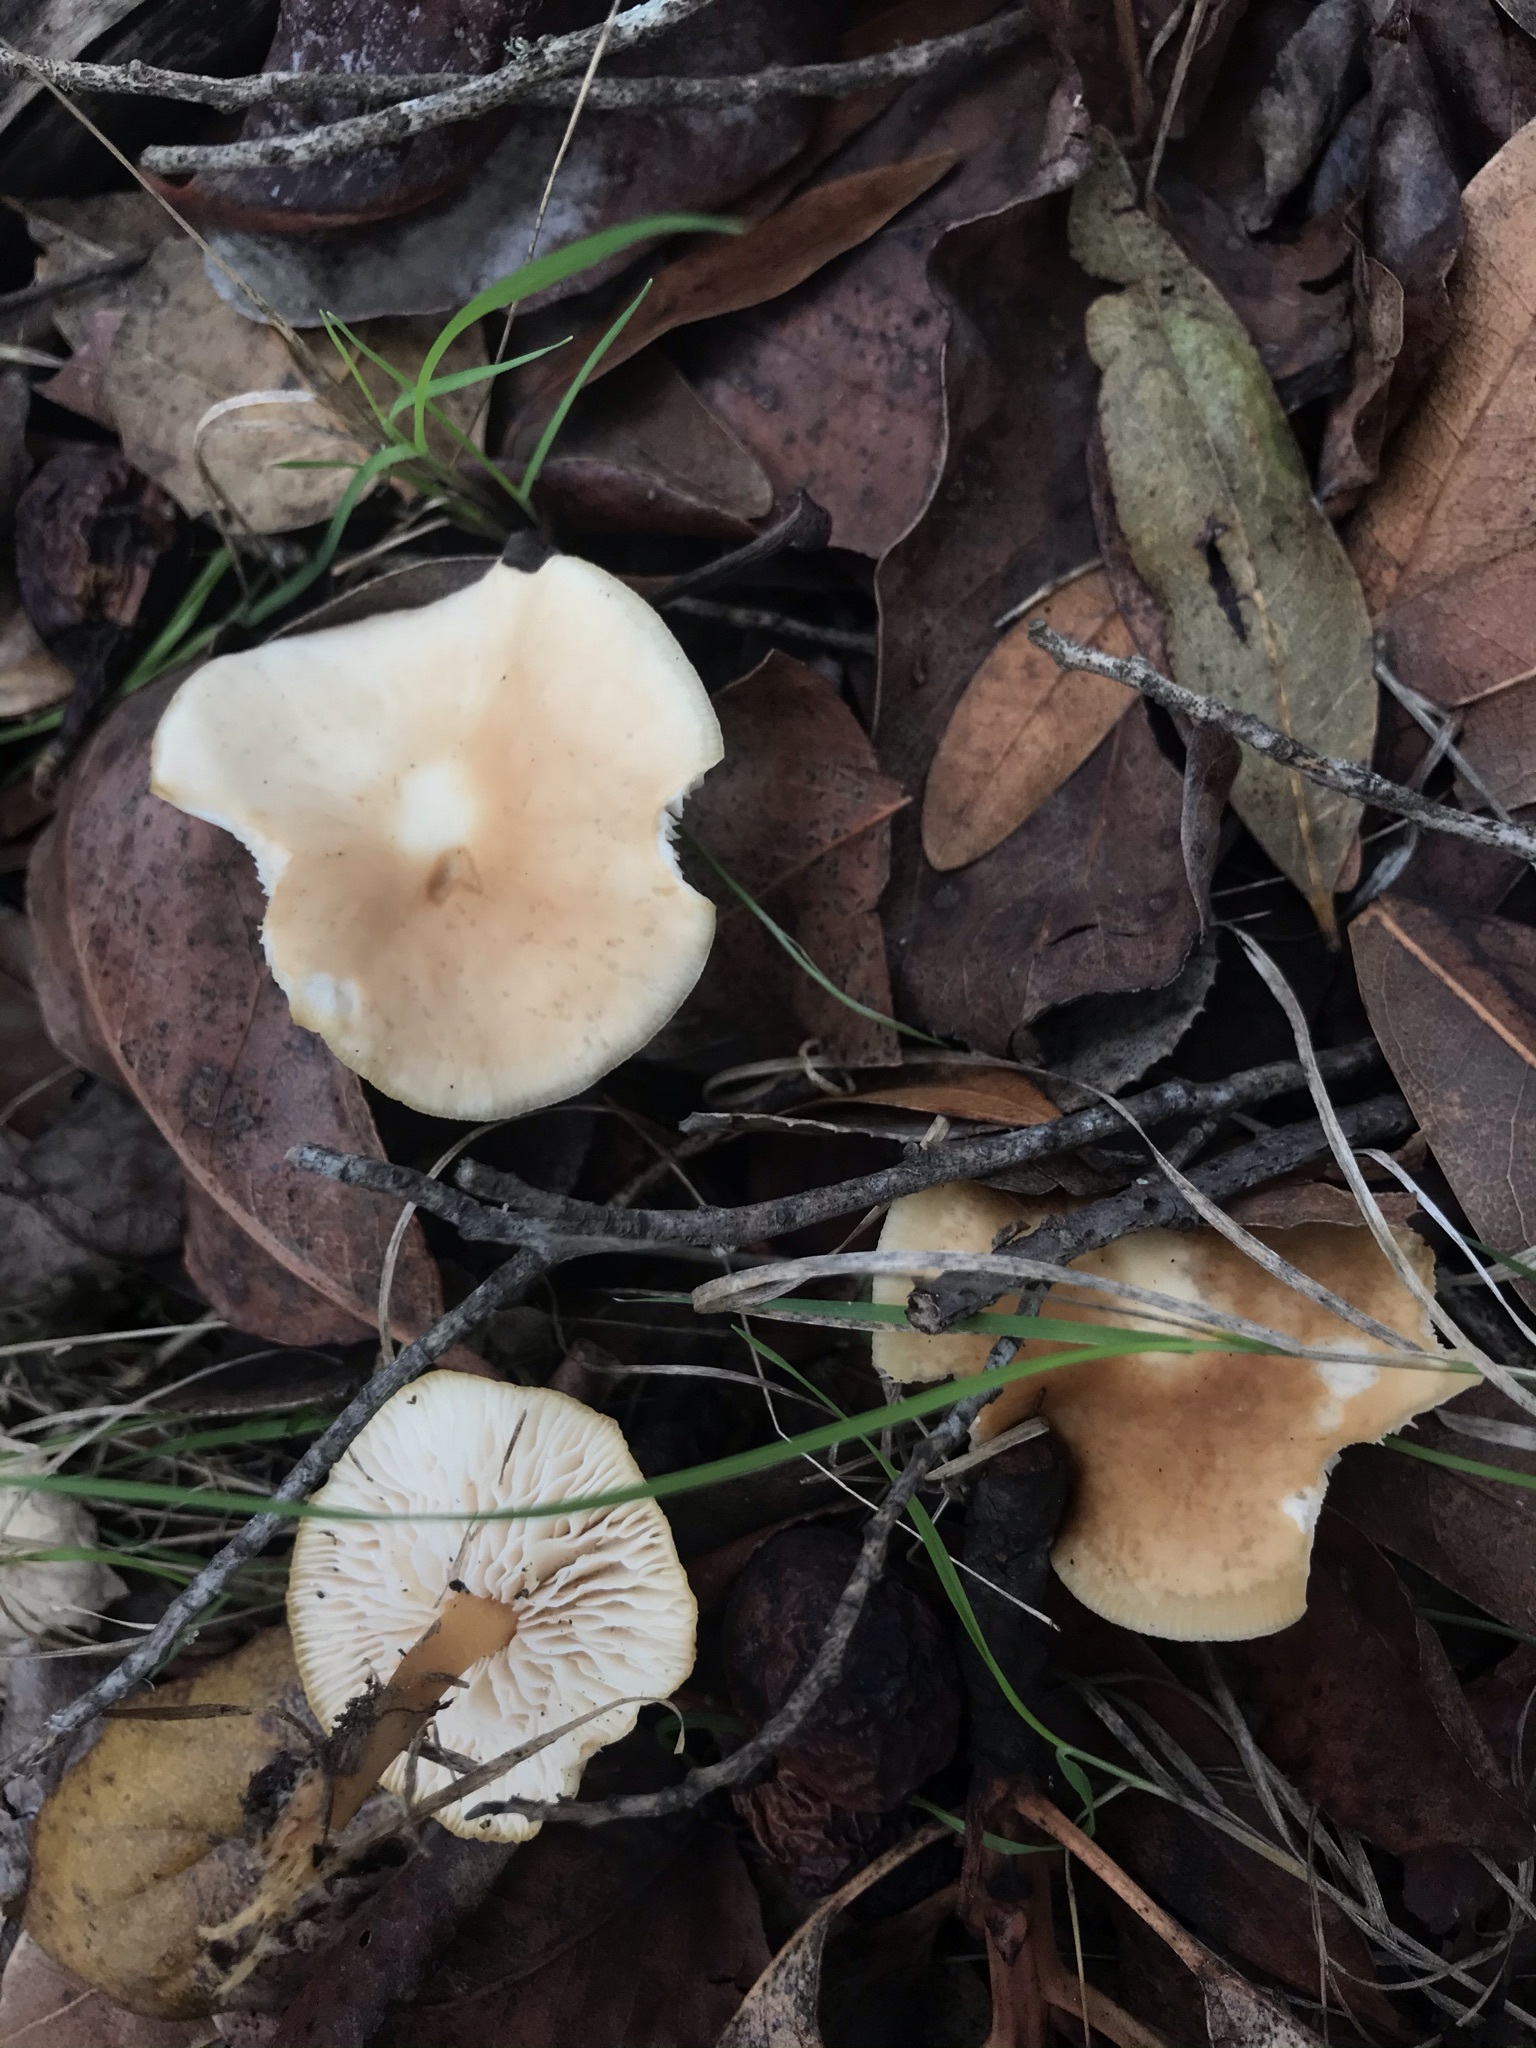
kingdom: Fungi
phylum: Basidiomycota
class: Agaricomycetes
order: Agaricales
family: Omphalotaceae
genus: Gymnopus
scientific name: Gymnopus dryophilus
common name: Penny top
